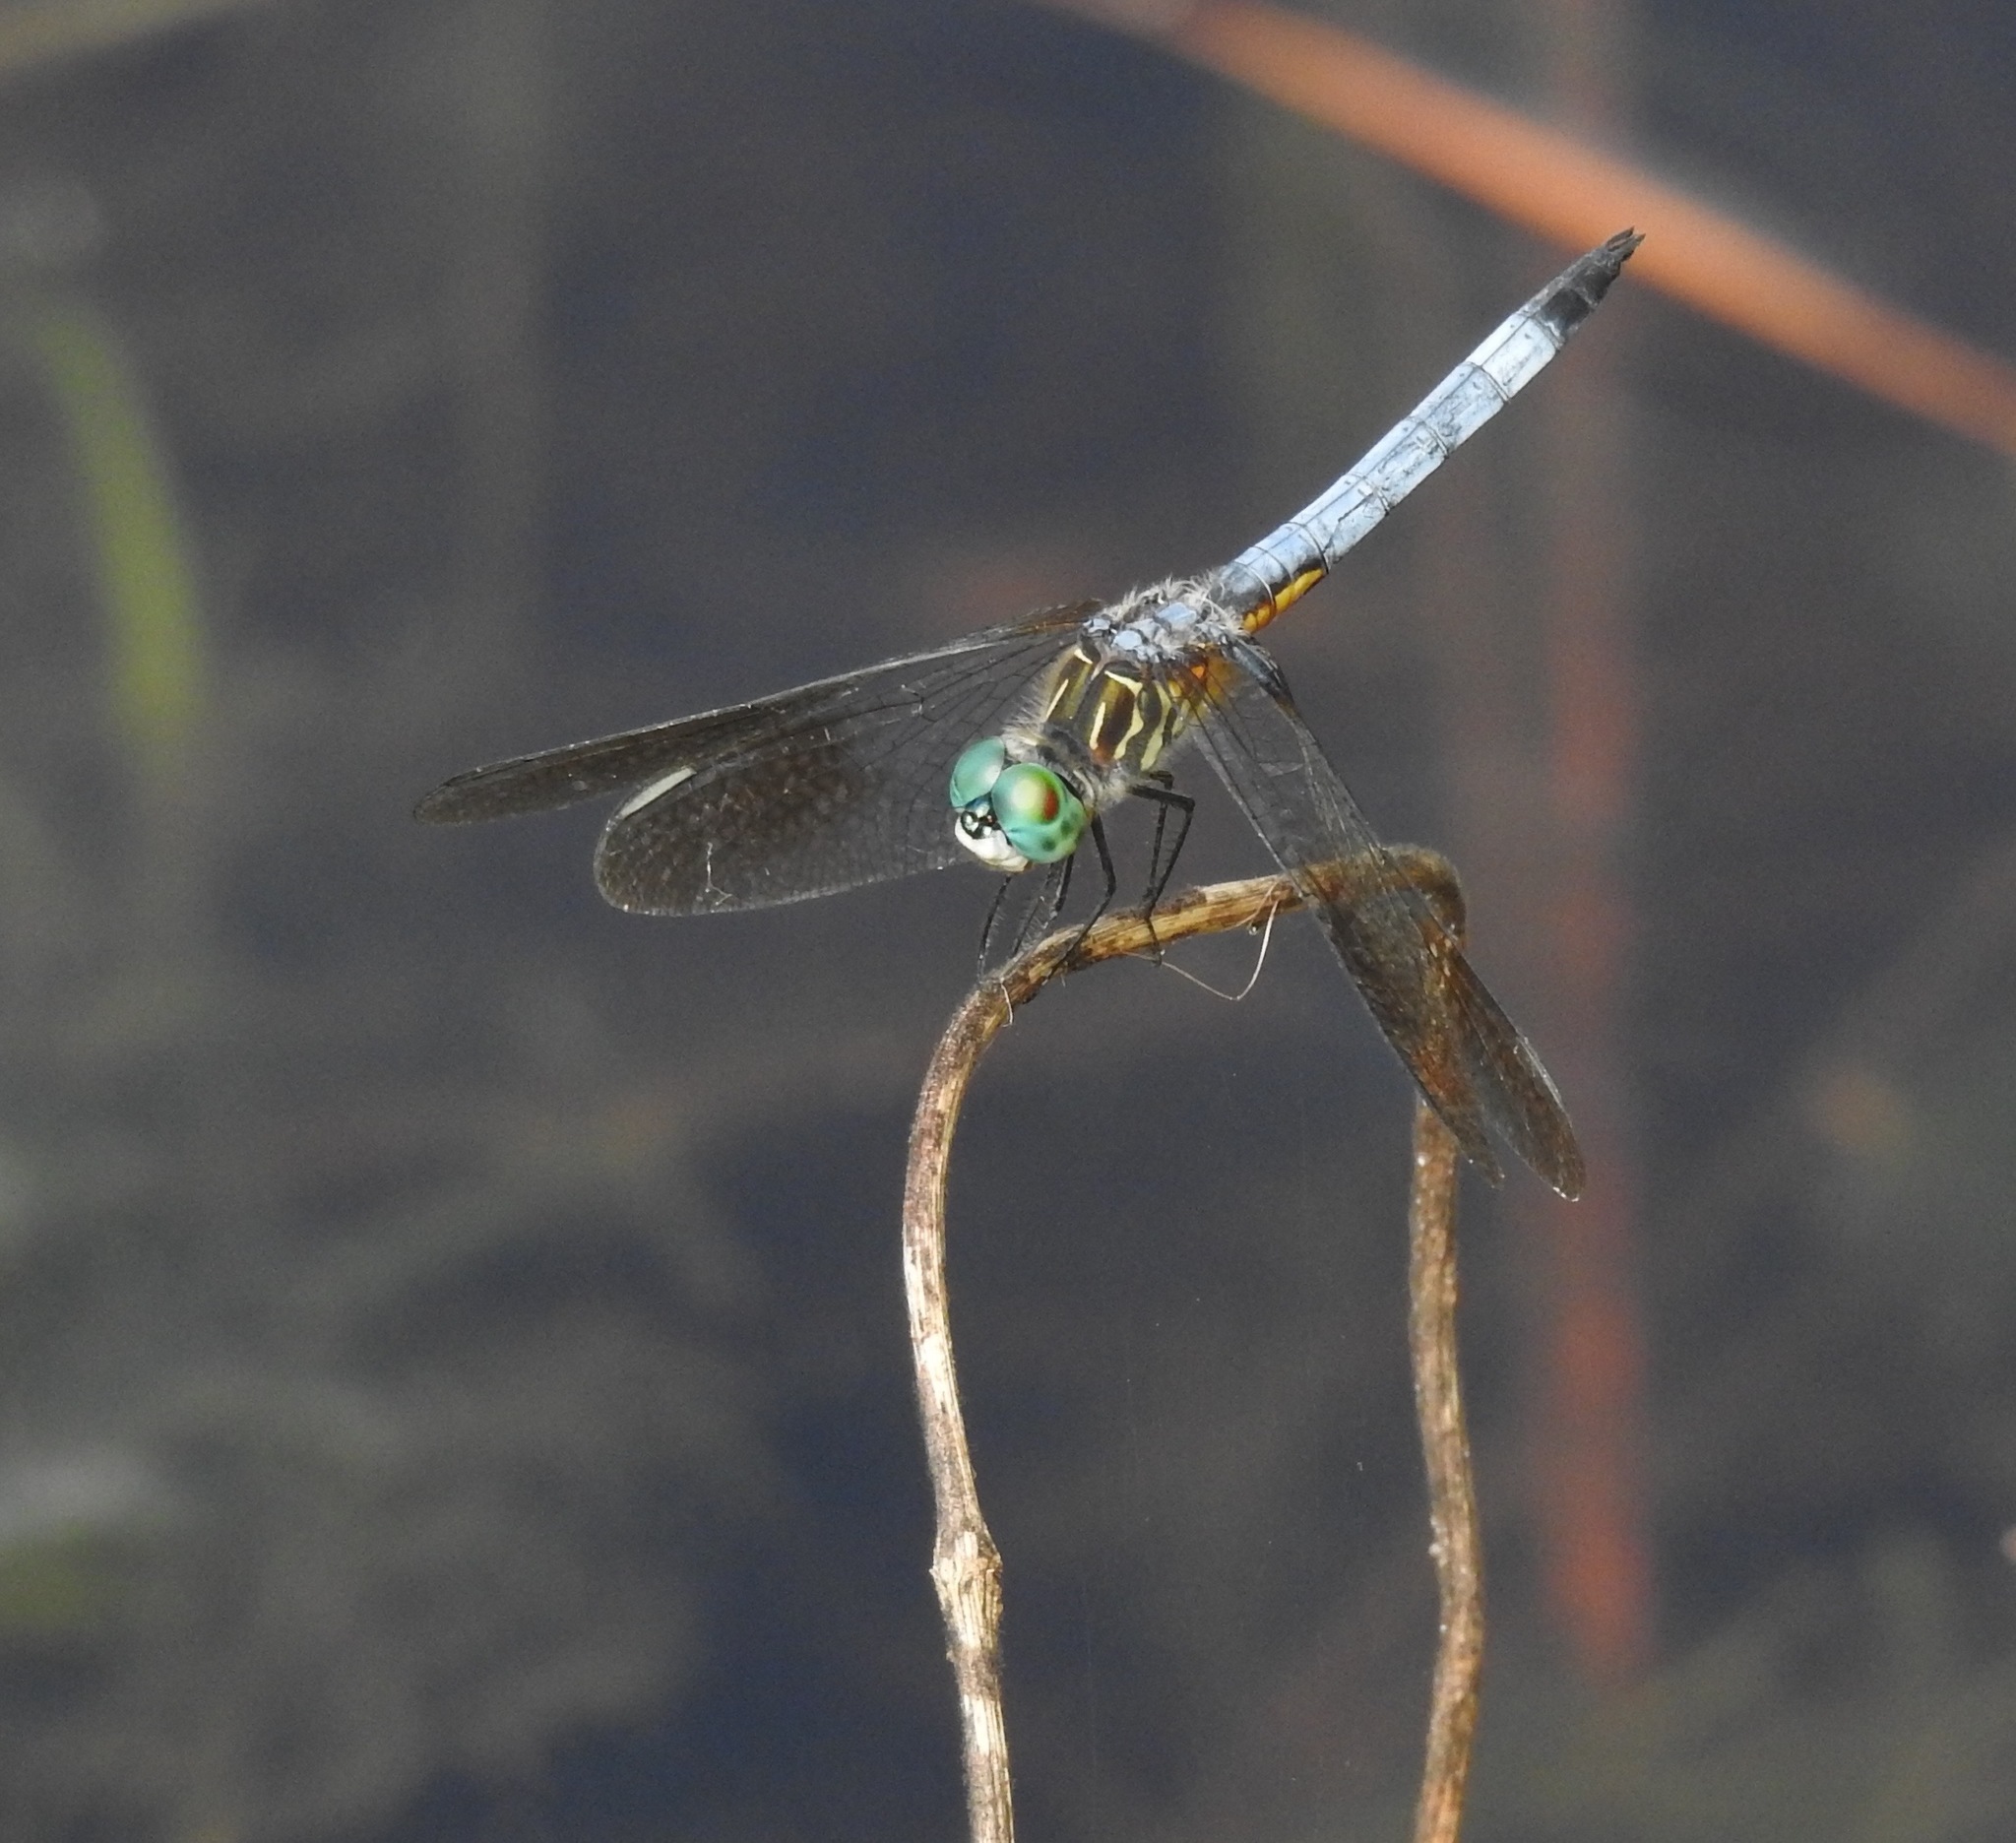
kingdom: Animalia
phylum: Arthropoda
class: Insecta
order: Odonata
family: Libellulidae
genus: Pachydiplax
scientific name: Pachydiplax longipennis
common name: Blue dasher
